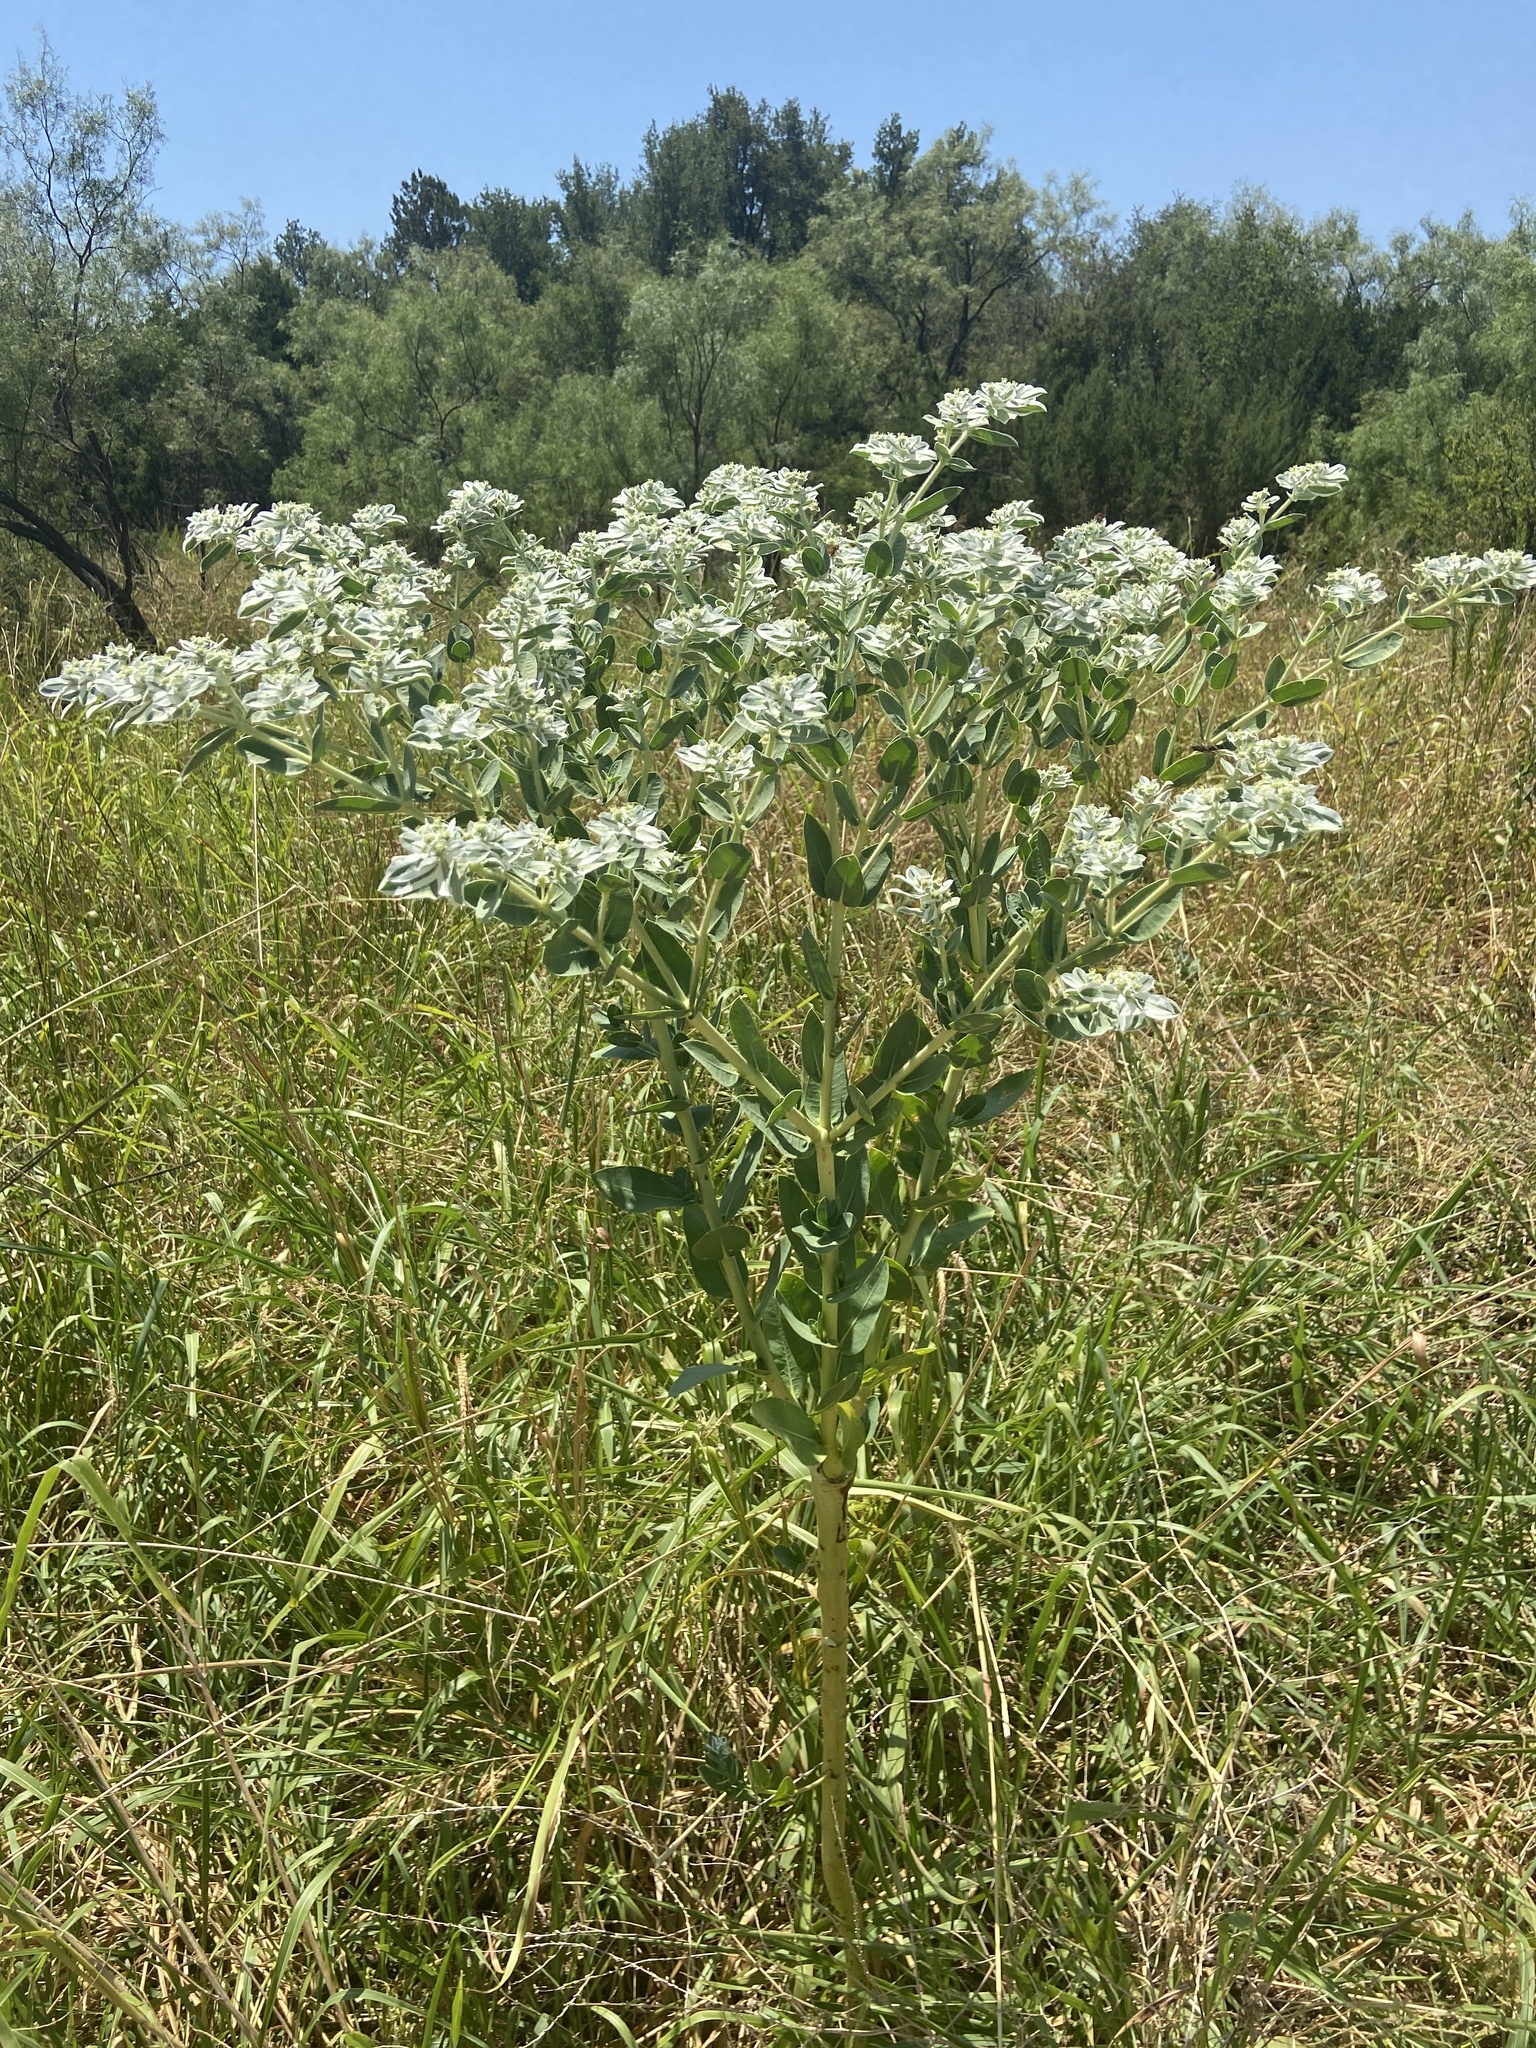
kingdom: Plantae
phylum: Tracheophyta
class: Magnoliopsida
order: Malpighiales
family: Euphorbiaceae
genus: Euphorbia
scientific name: Euphorbia marginata
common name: Ghostweed
